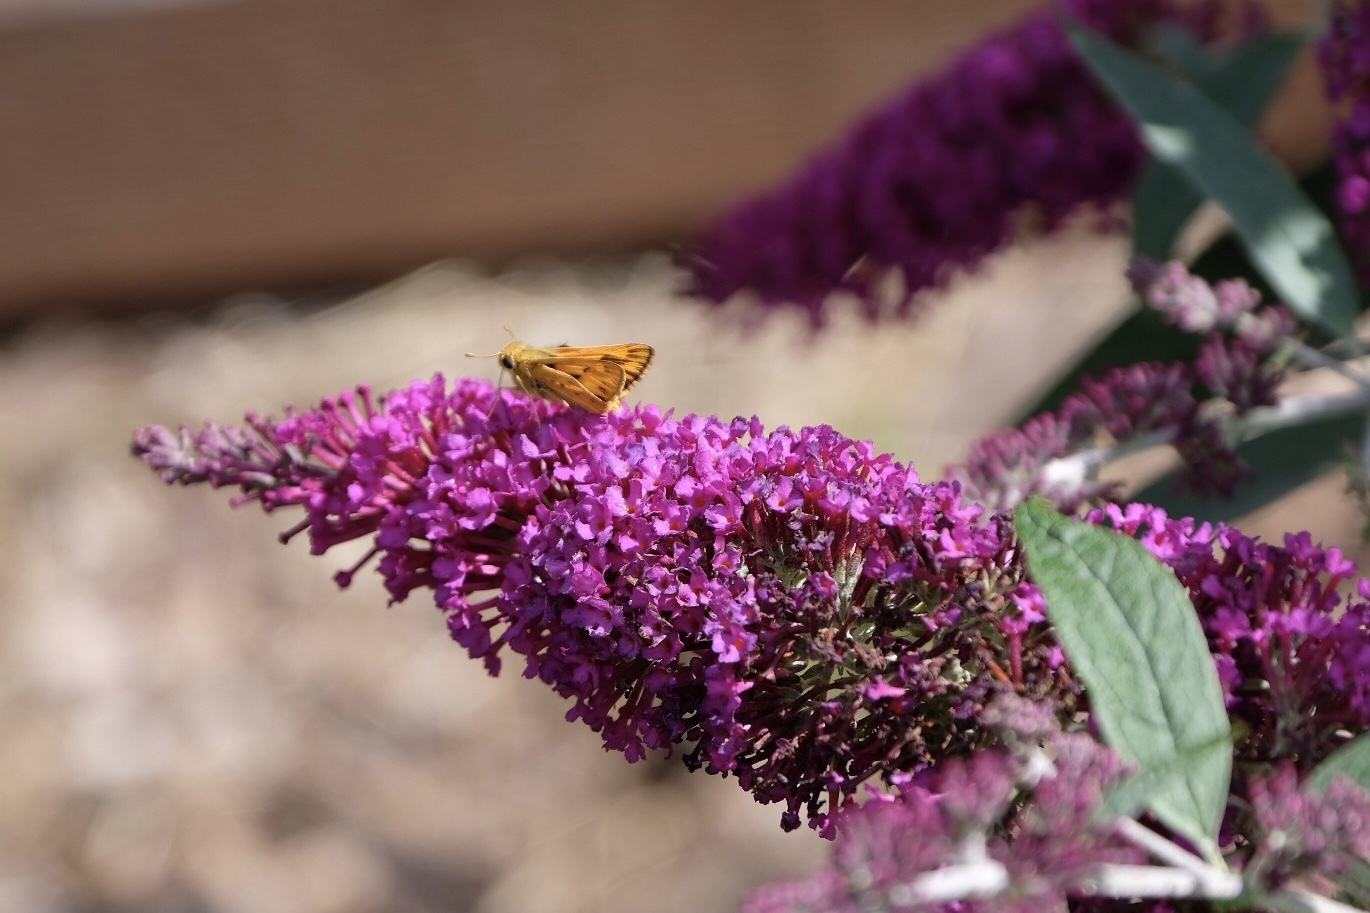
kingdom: Animalia
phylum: Arthropoda
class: Insecta
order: Lepidoptera
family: Hesperiidae
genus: Hylephila
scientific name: Hylephila phyleus
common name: Fiery skipper
